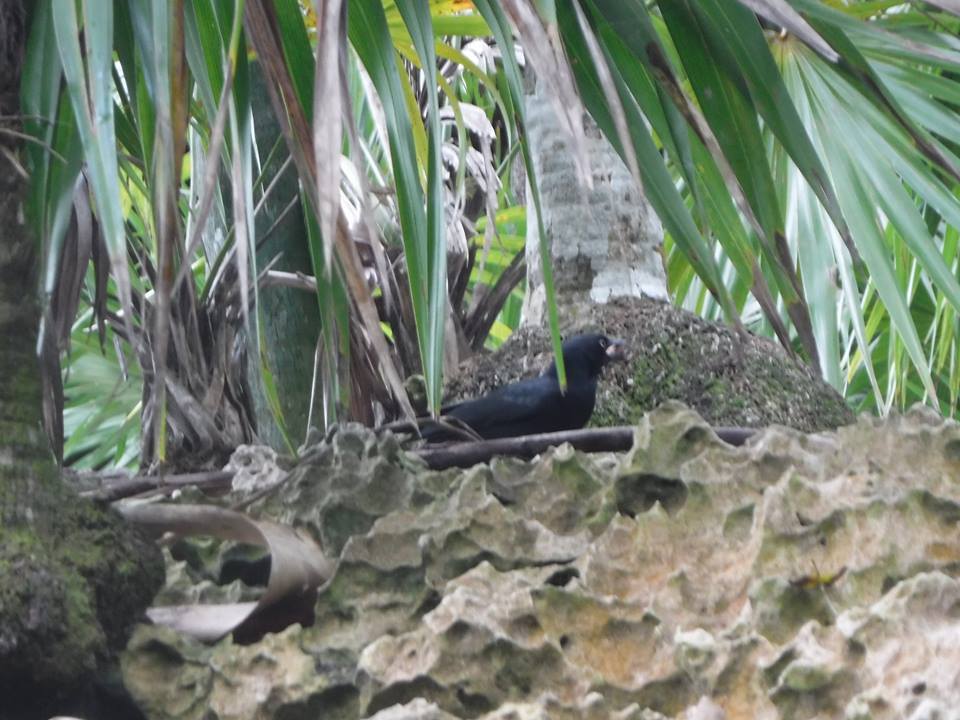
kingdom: Animalia
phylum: Chordata
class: Aves
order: Passeriformes
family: Icteridae
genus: Quiscalus
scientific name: Quiscalus niger
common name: Greater antillean grackle
